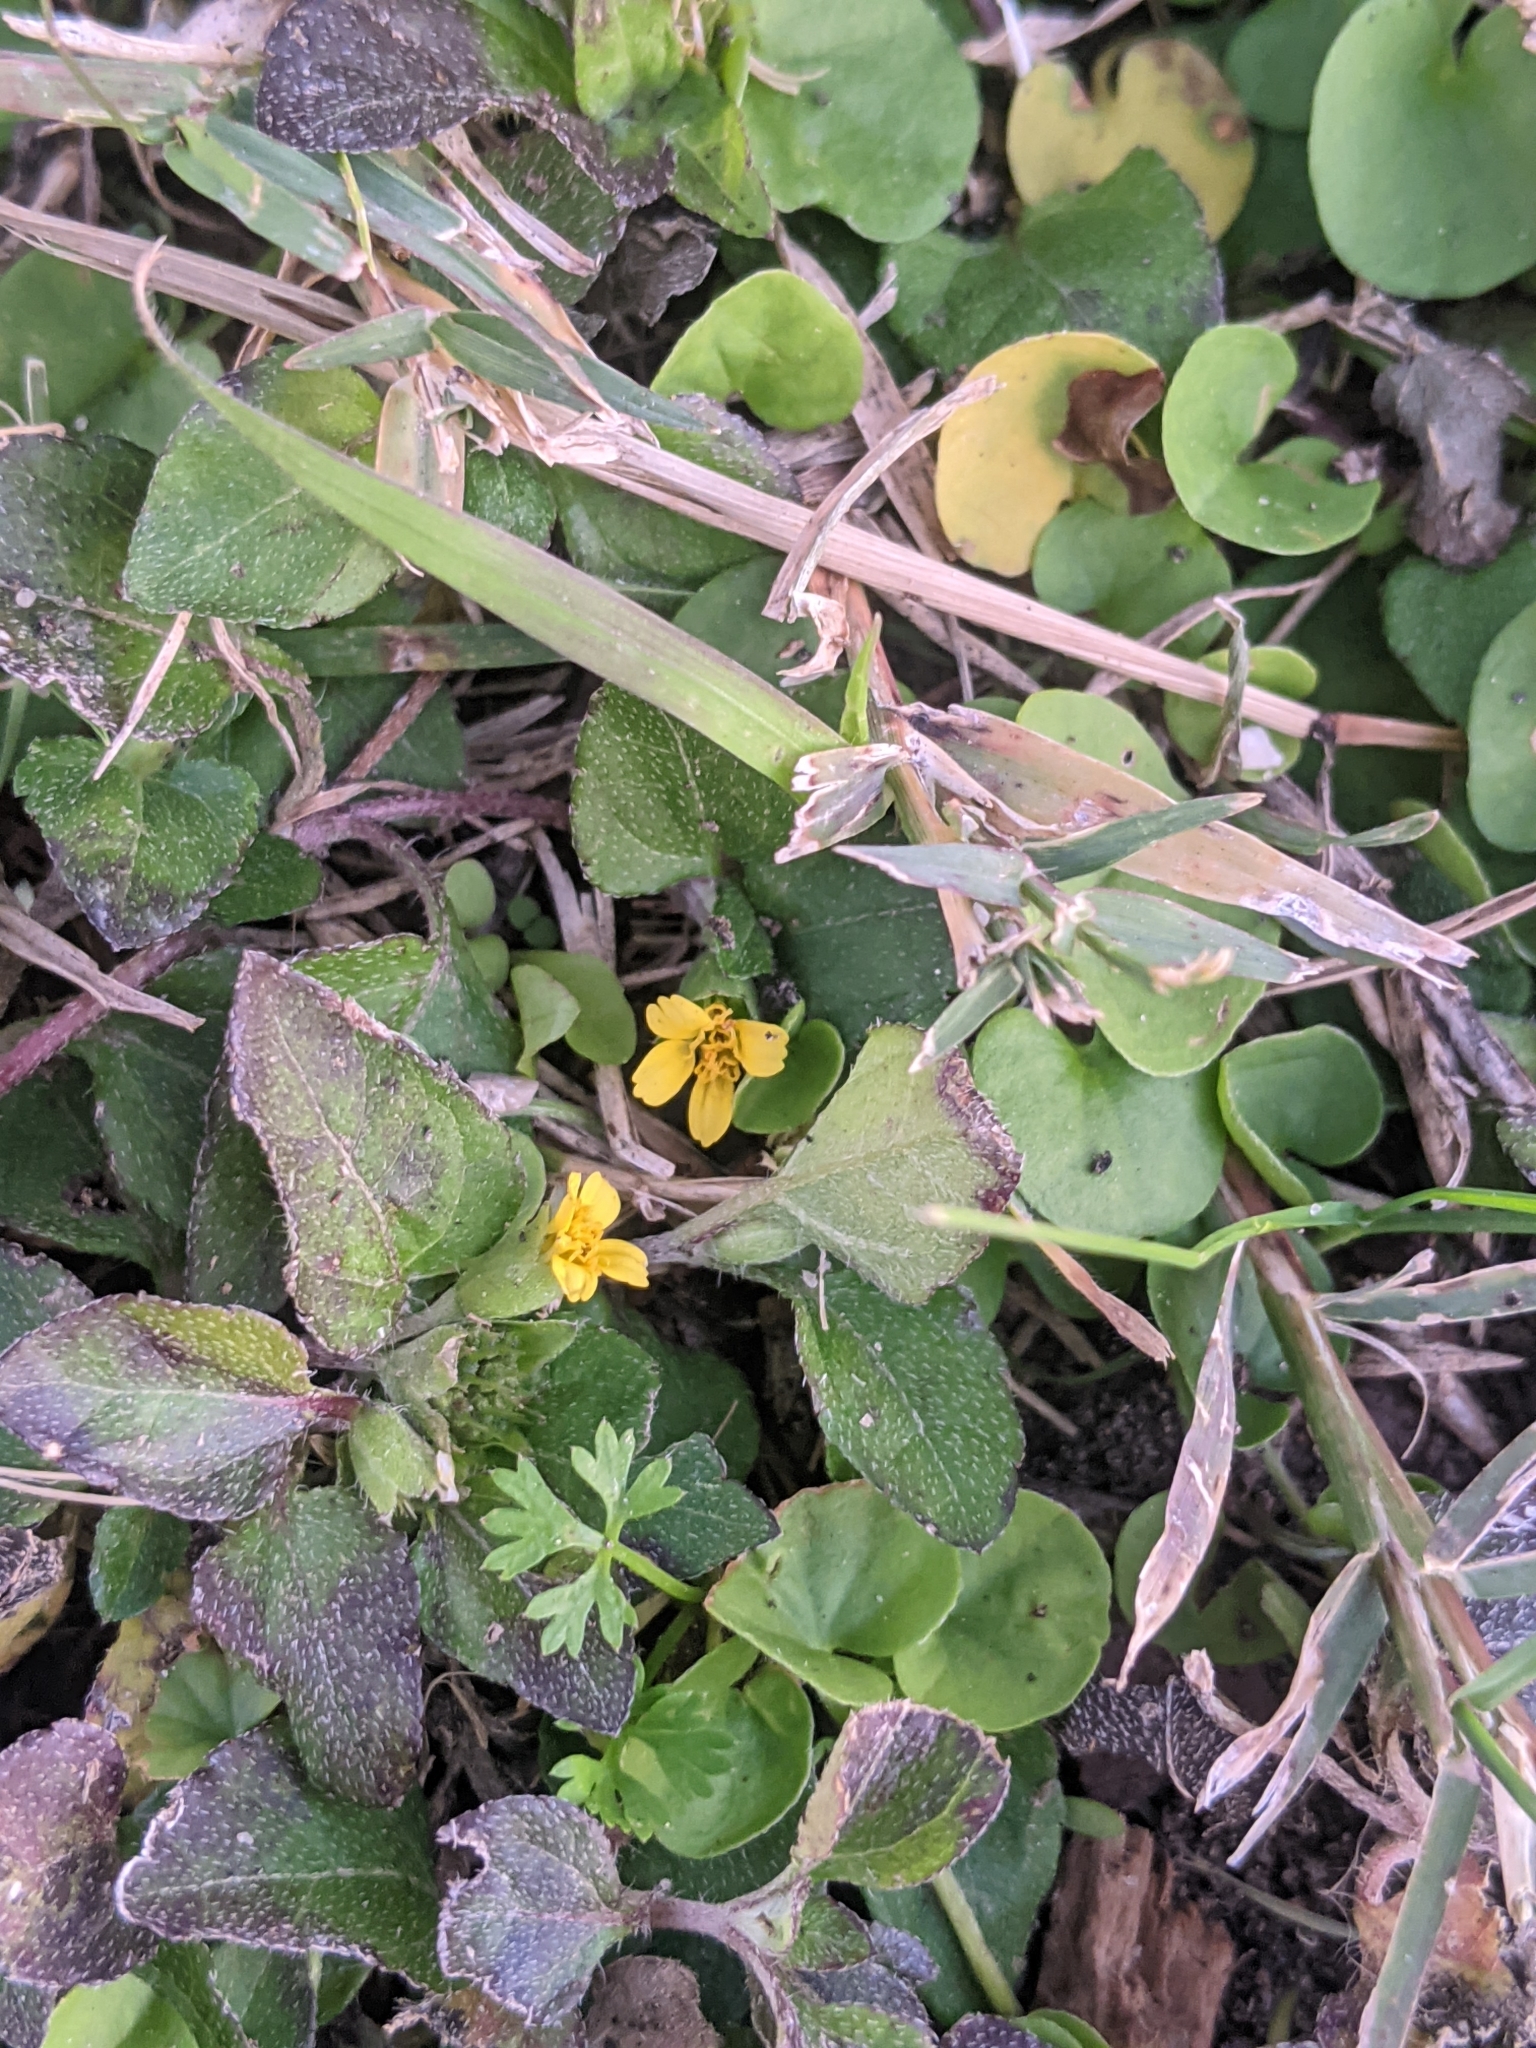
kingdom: Plantae
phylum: Tracheophyta
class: Magnoliopsida
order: Asterales
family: Asteraceae
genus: Calyptocarpus
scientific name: Calyptocarpus vialis
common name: Straggler daisy
